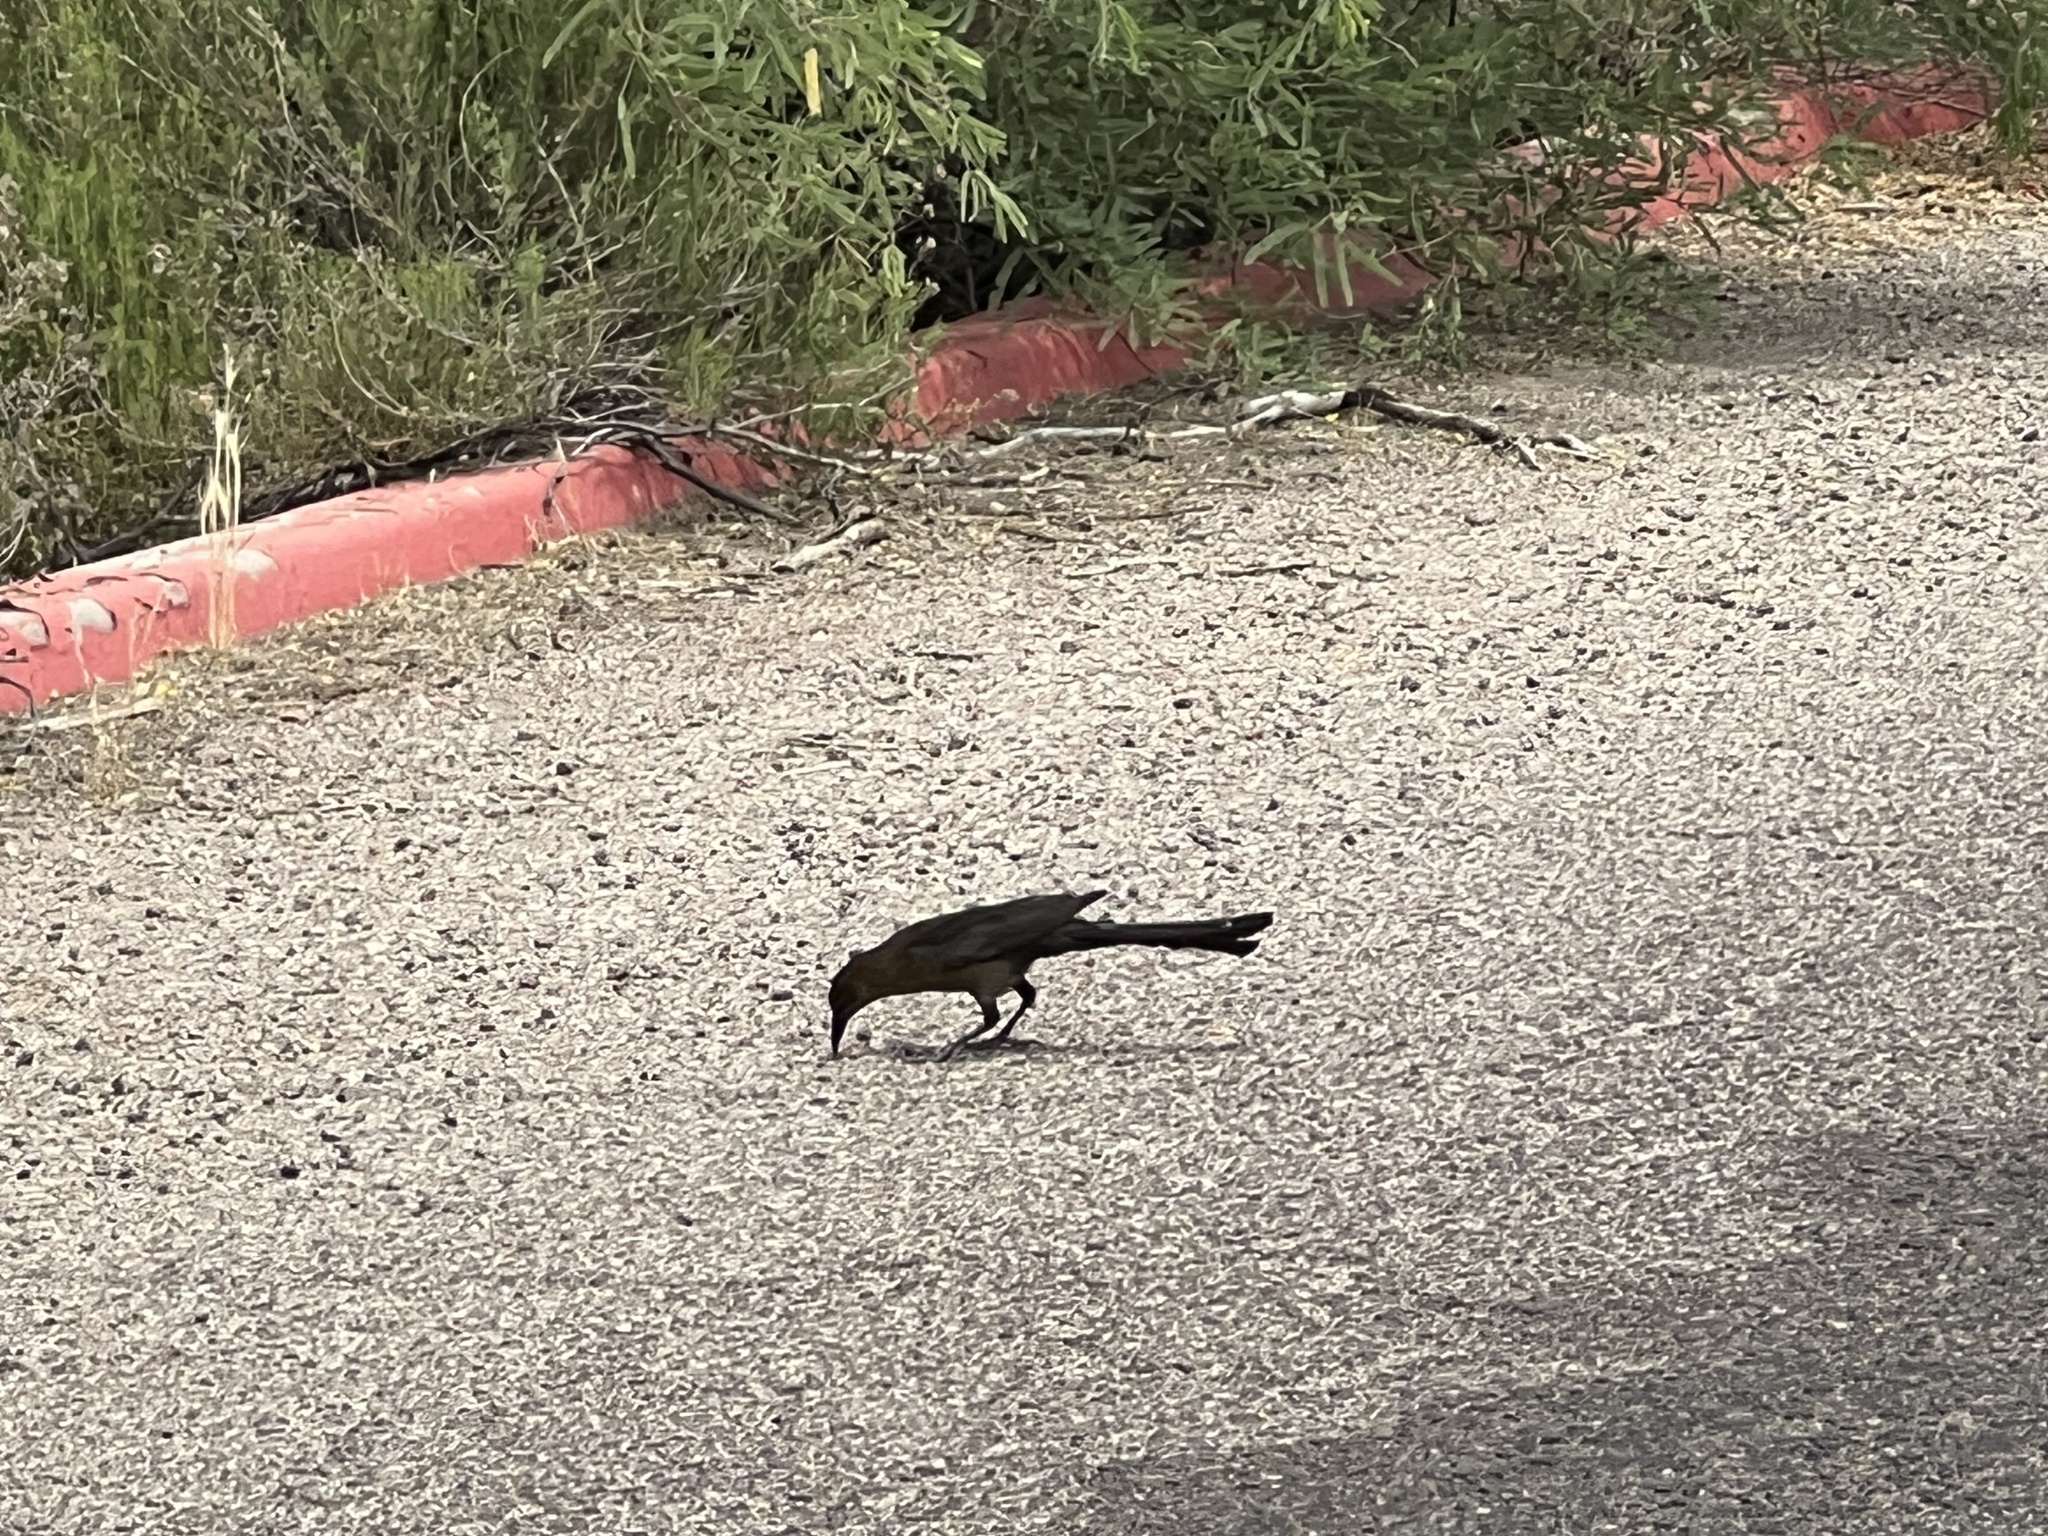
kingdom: Animalia
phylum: Chordata
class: Aves
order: Passeriformes
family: Icteridae
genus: Quiscalus
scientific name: Quiscalus mexicanus
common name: Great-tailed grackle
